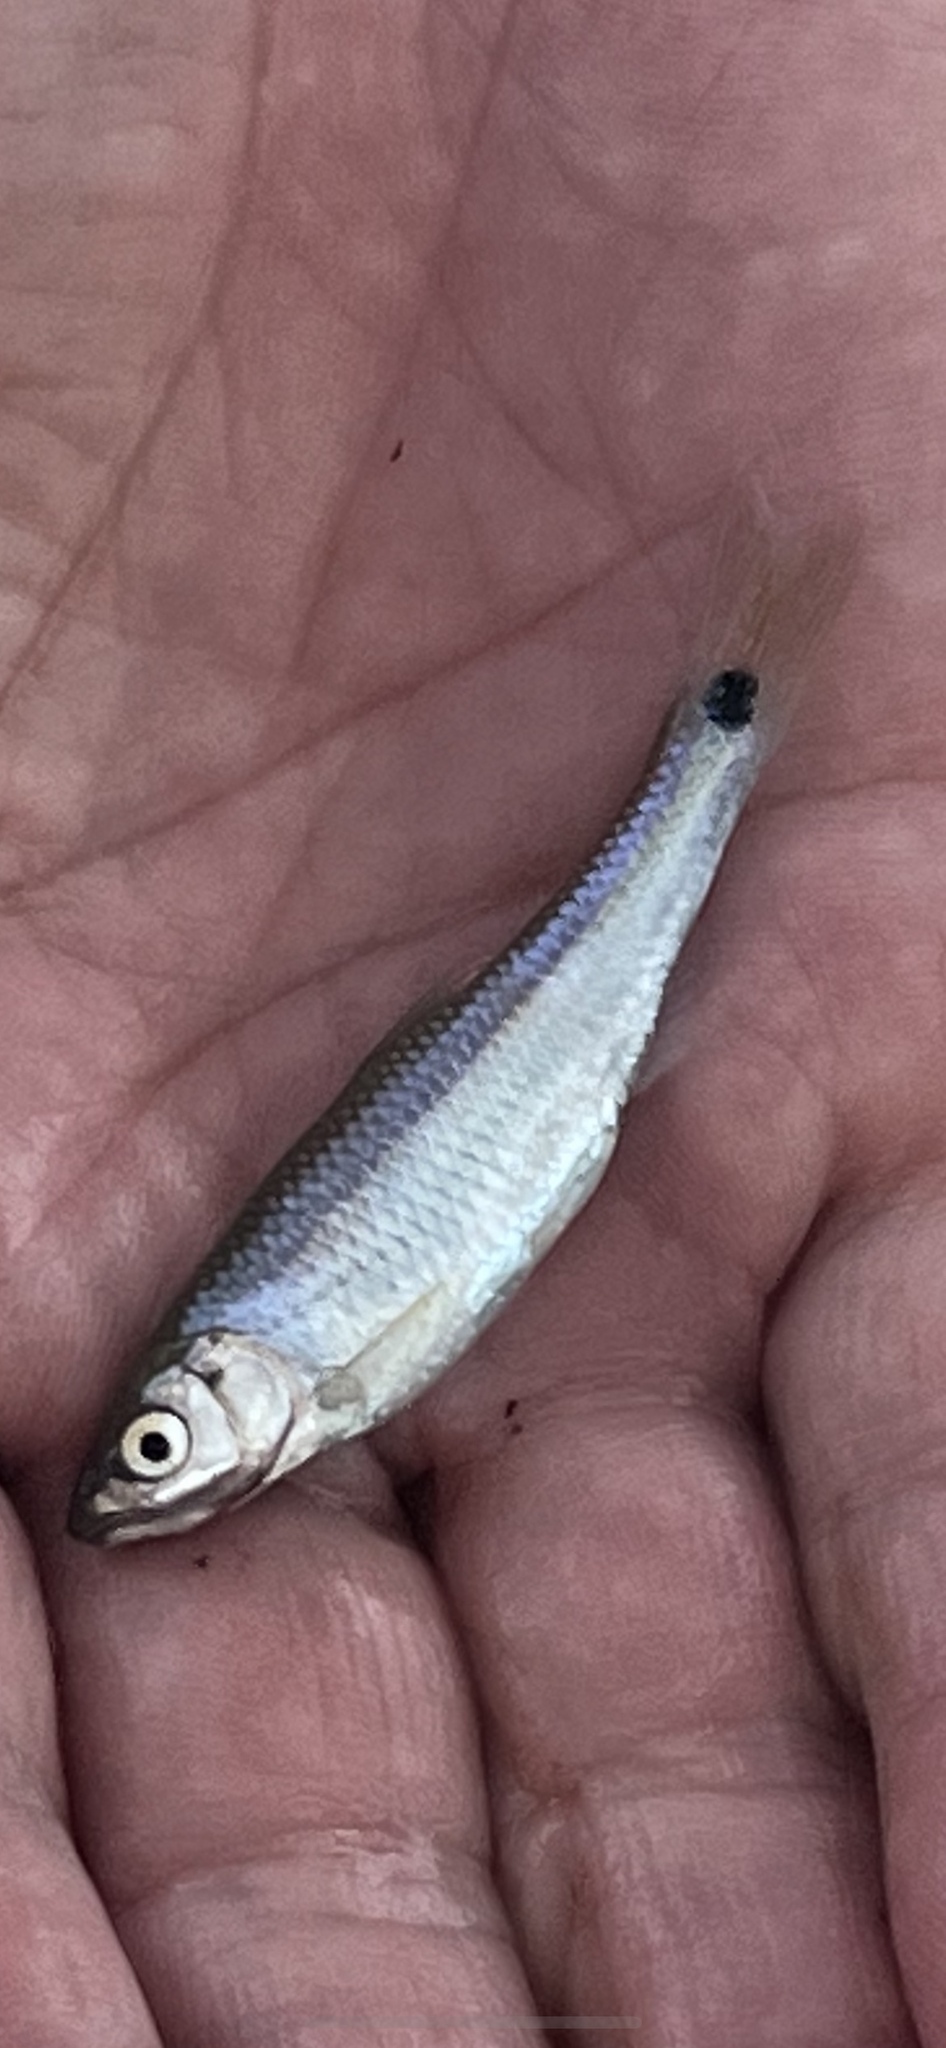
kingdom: Animalia
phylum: Chordata
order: Cypriniformes
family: Cyprinidae
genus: Cyprinella
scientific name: Cyprinella venusta
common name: Blacktail shiner
